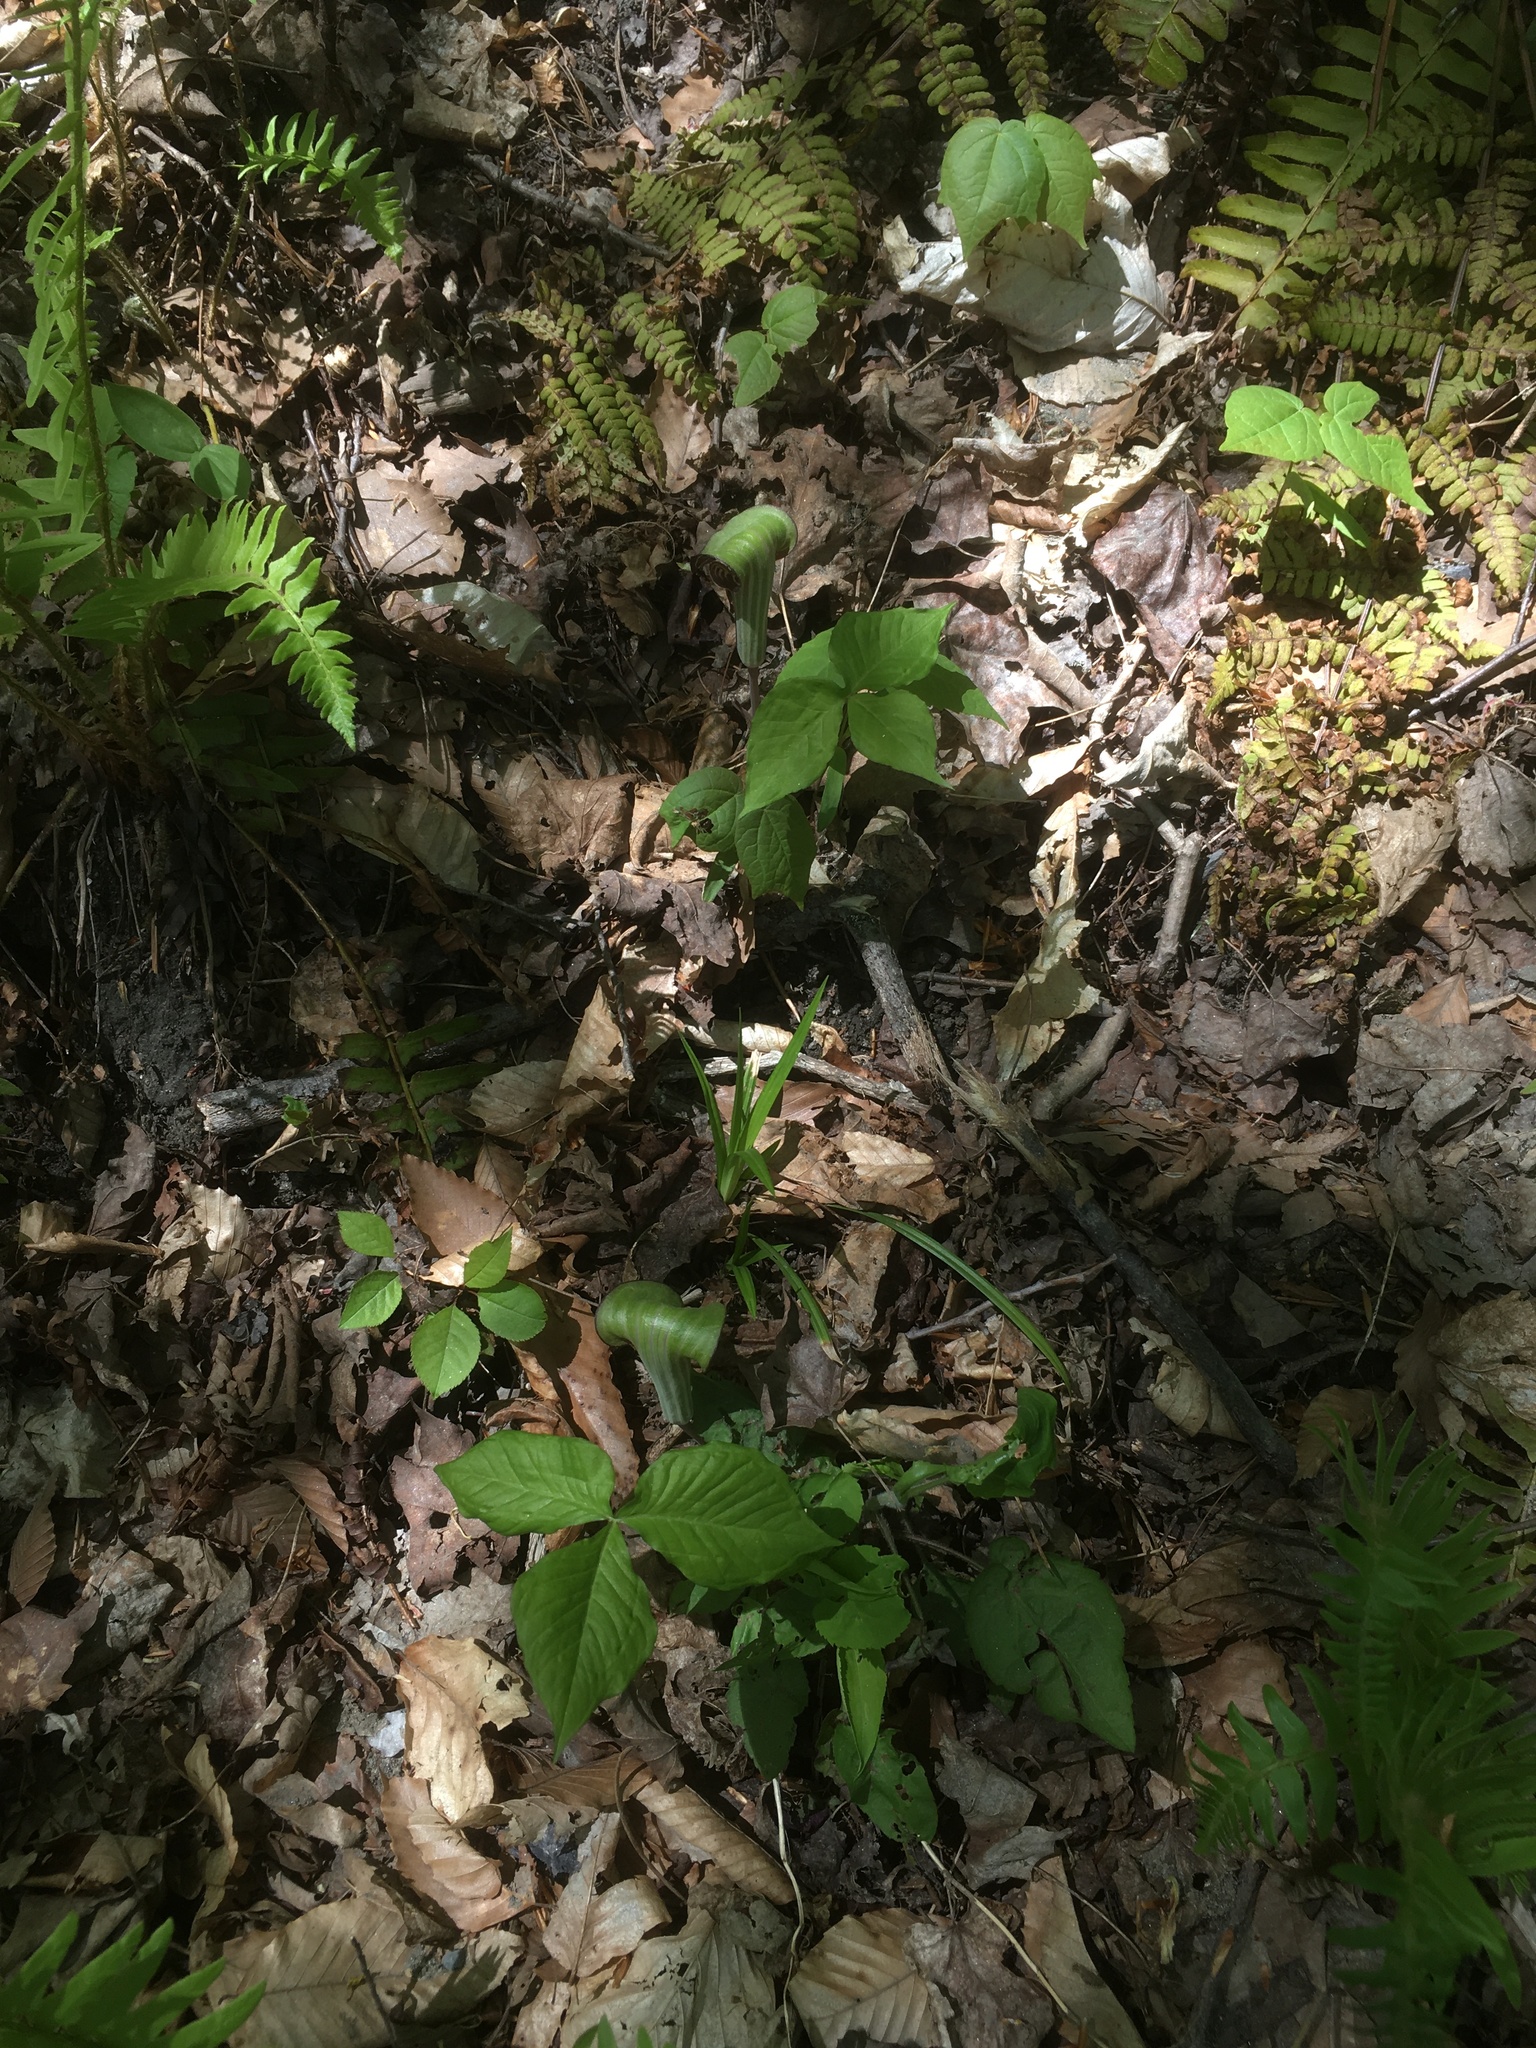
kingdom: Plantae
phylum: Tracheophyta
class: Liliopsida
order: Alismatales
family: Araceae
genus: Arisaema
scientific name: Arisaema triphyllum
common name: Jack-in-the-pulpit
